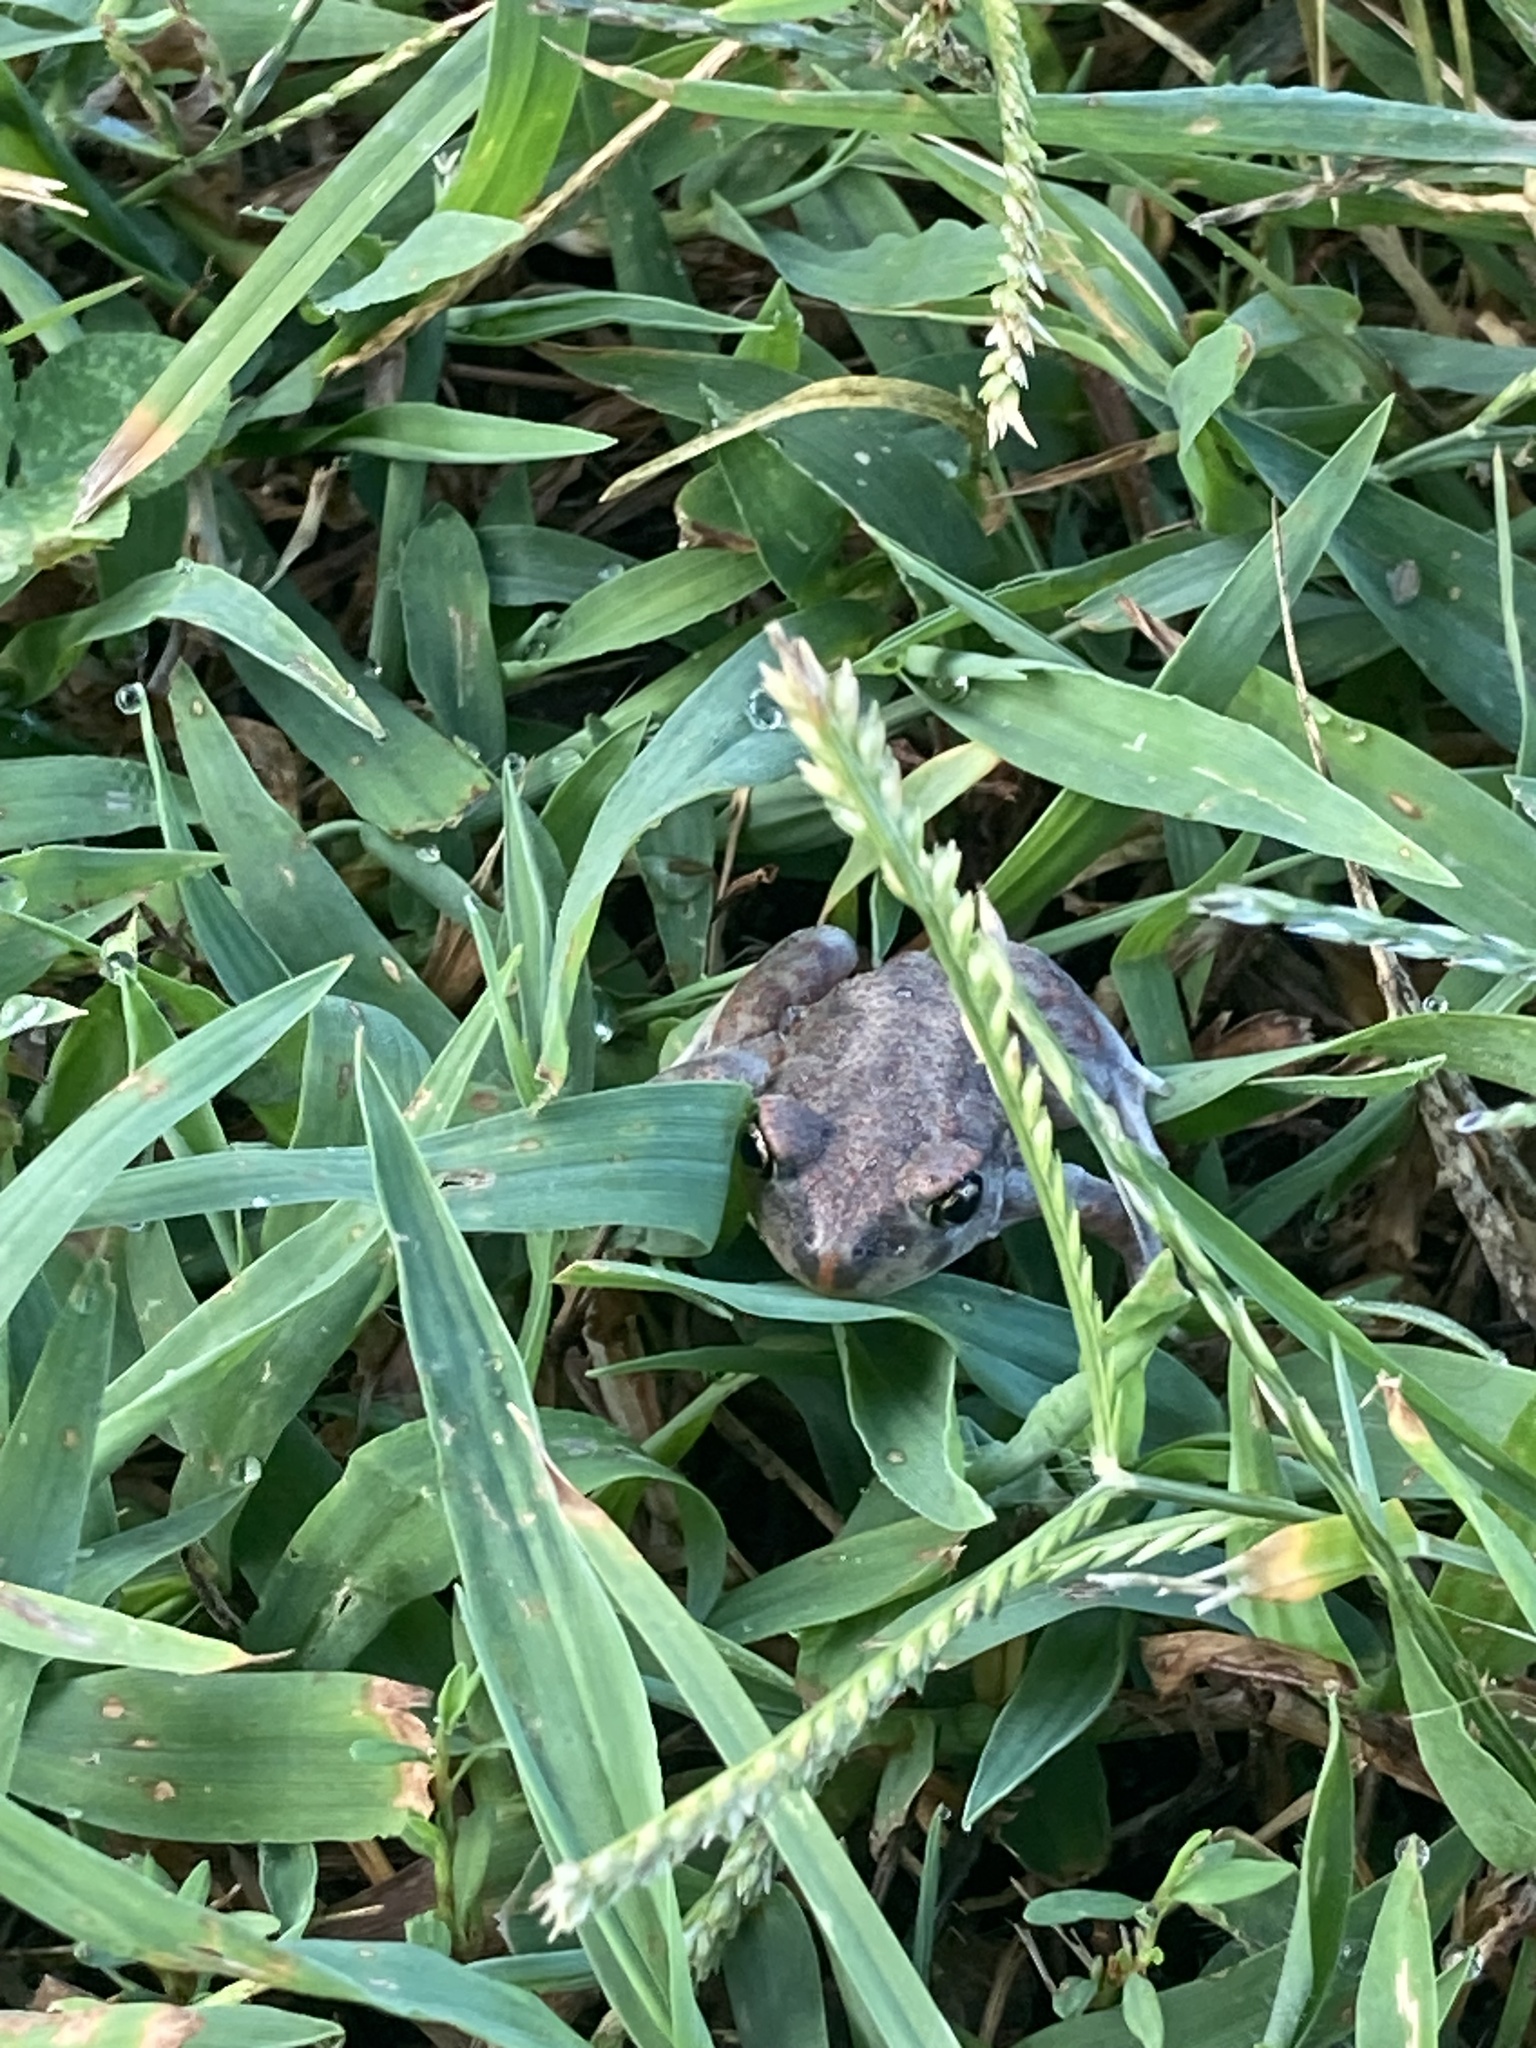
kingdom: Animalia
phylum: Chordata
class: Amphibia
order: Anura
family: Scaphiopodidae
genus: Scaphiopus
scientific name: Scaphiopus holbrookii
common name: Eastern spadefoot toad
